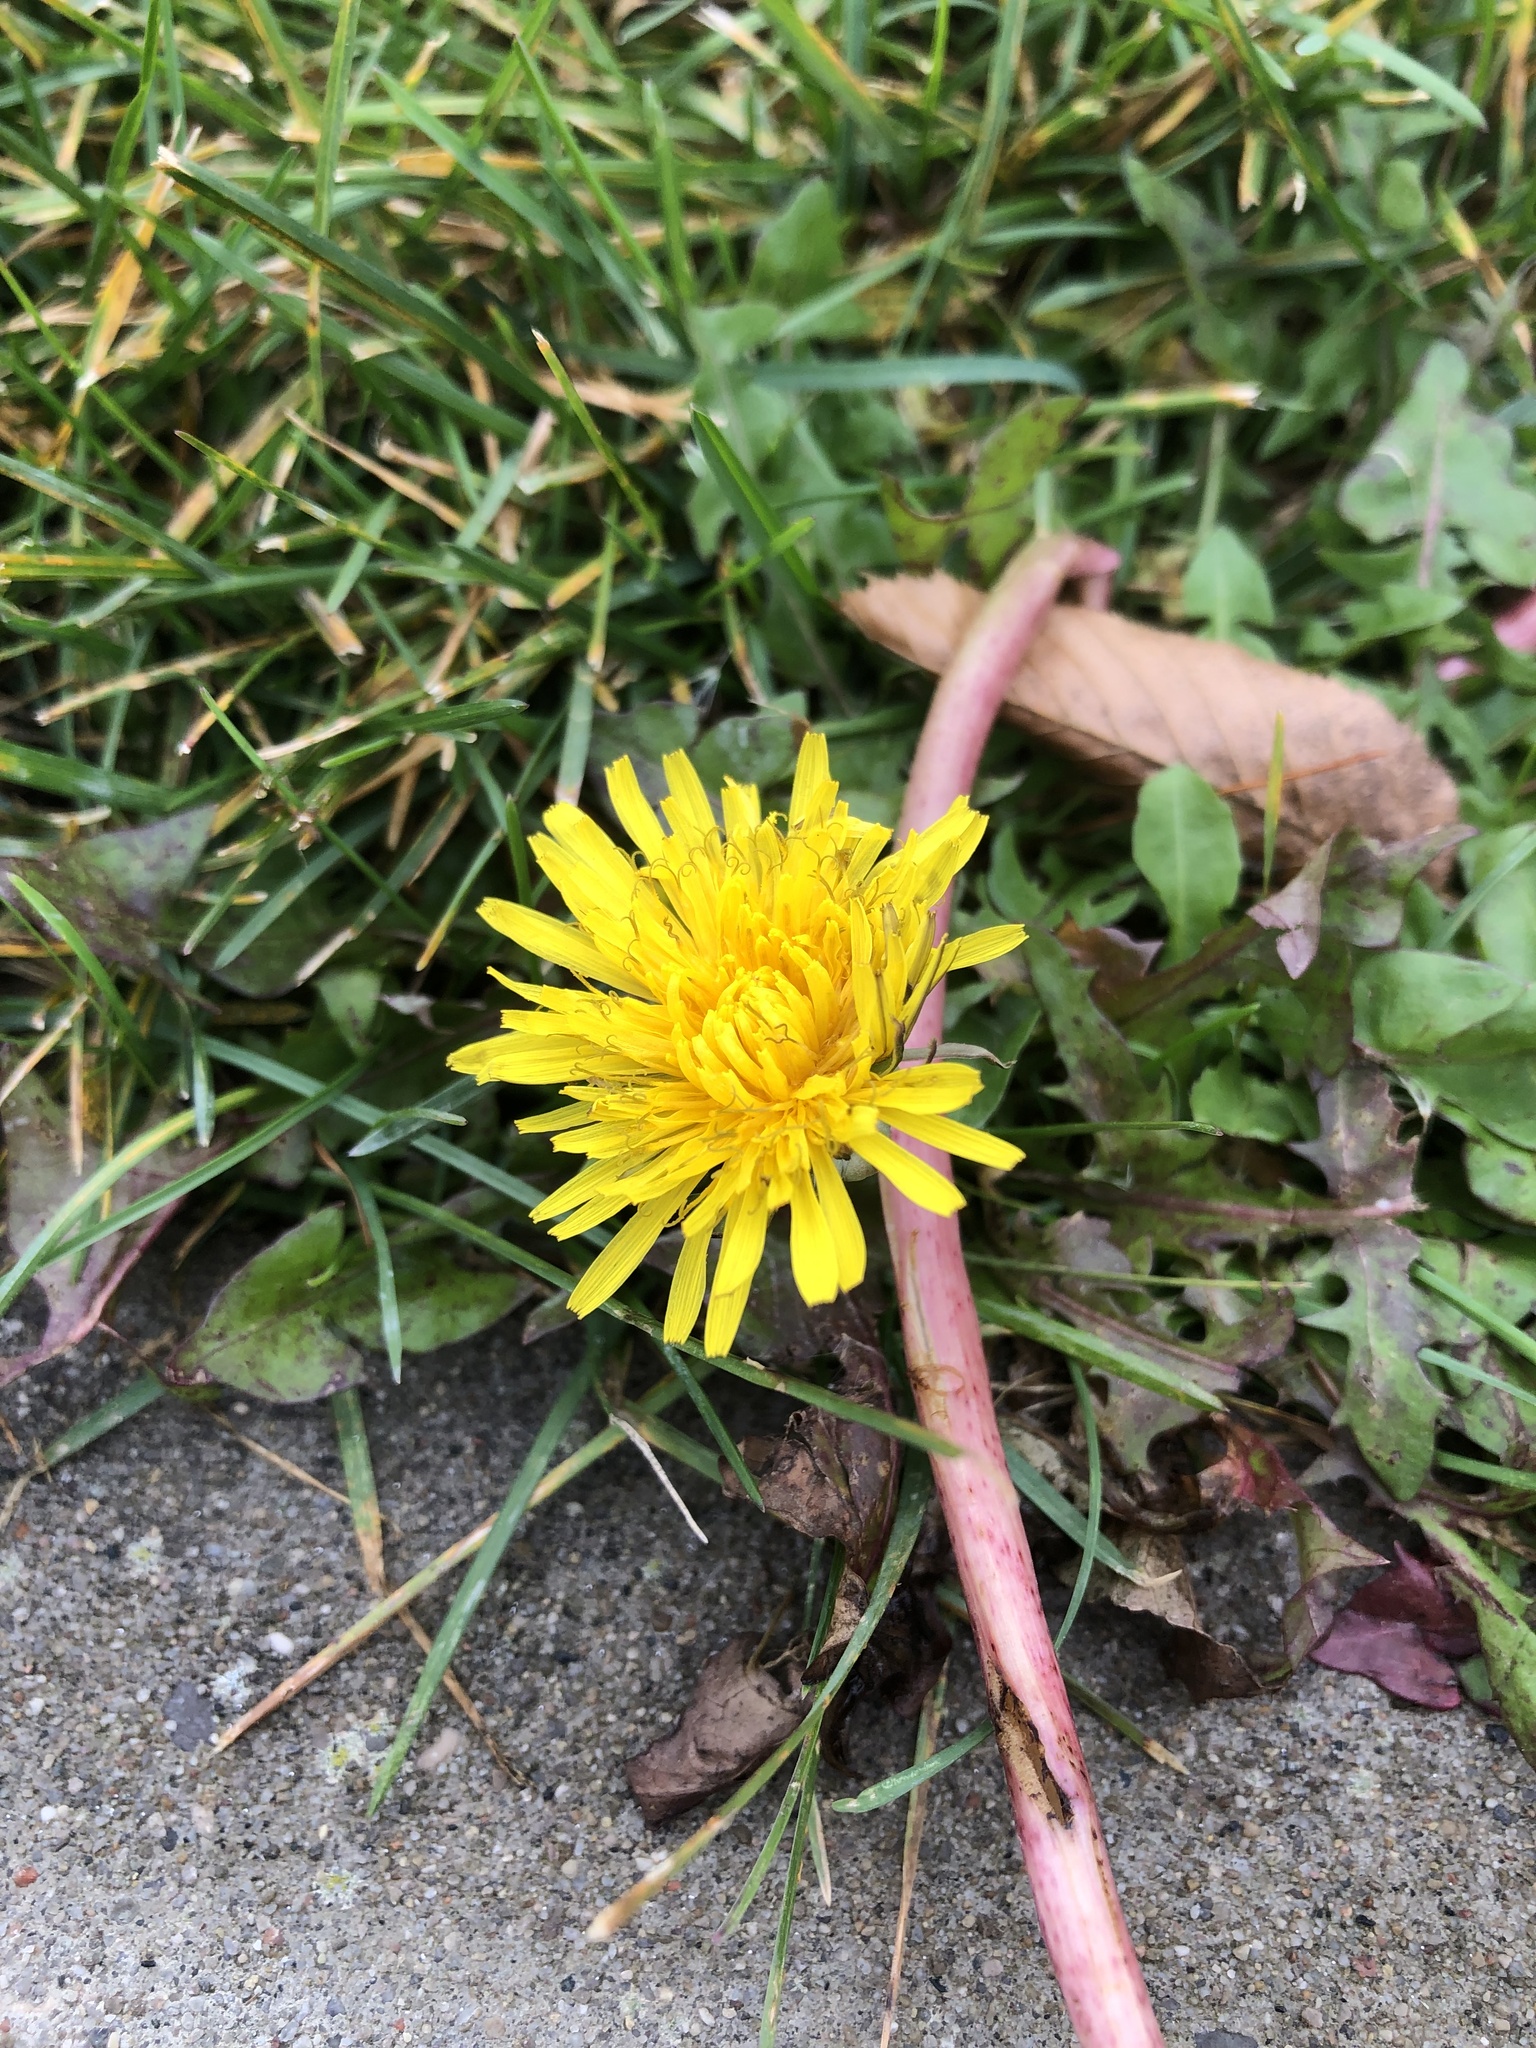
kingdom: Plantae
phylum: Tracheophyta
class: Magnoliopsida
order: Asterales
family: Asteraceae
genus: Taraxacum
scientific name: Taraxacum officinale
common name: Common dandelion
